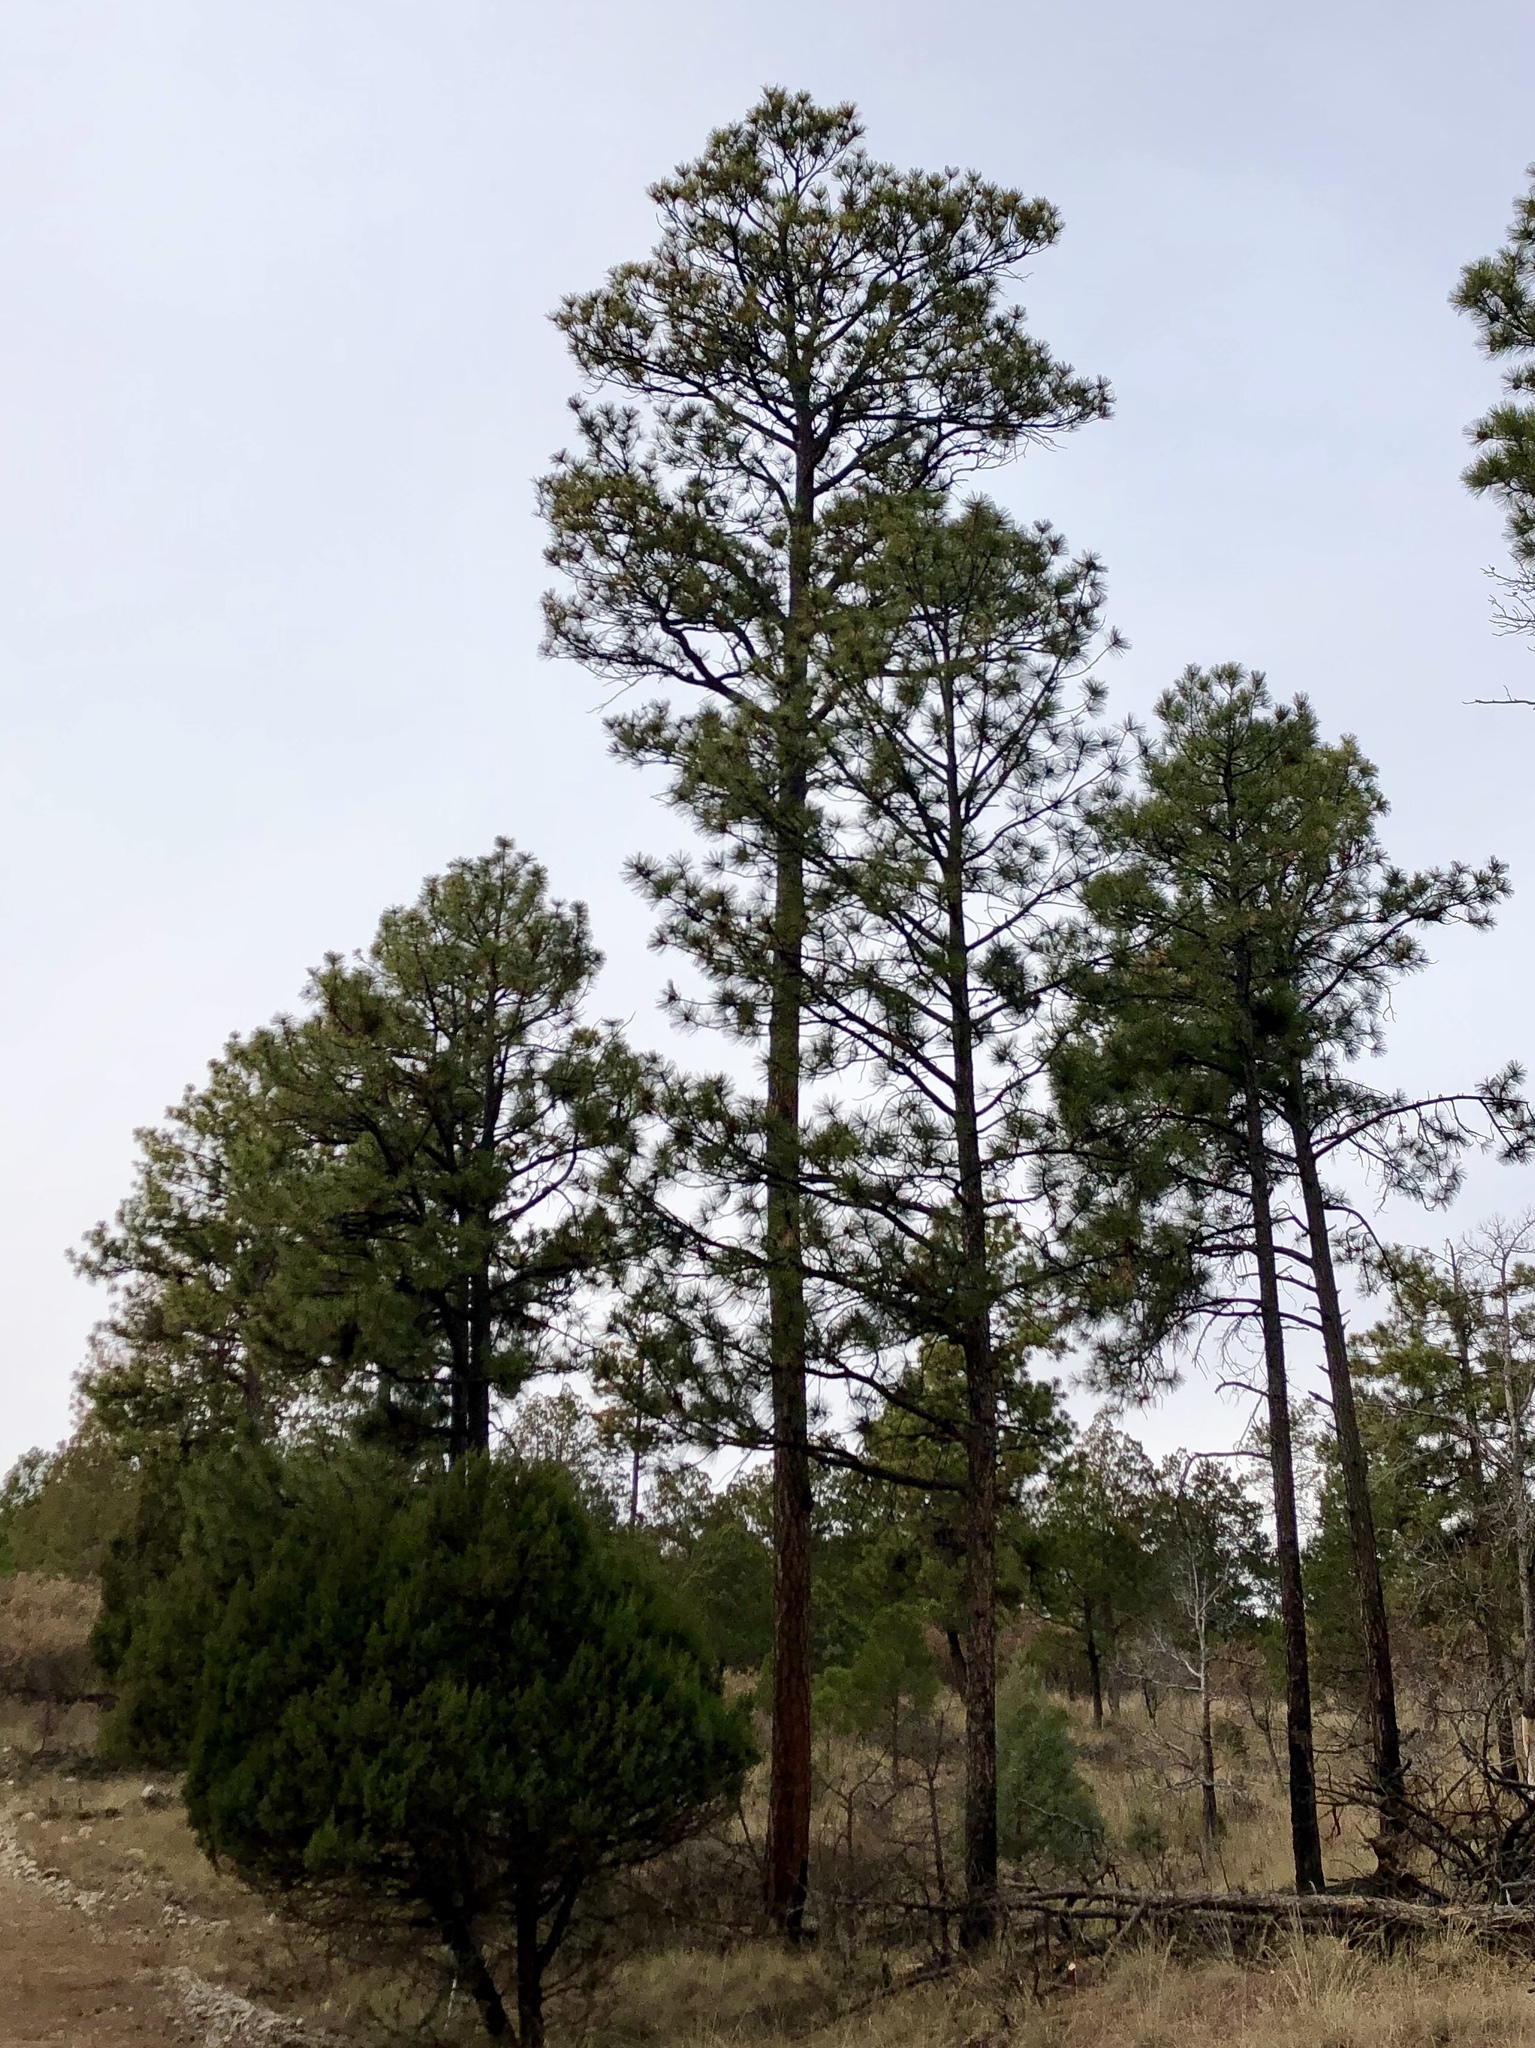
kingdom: Plantae
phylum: Tracheophyta
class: Pinopsida
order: Pinales
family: Pinaceae
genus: Pinus
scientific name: Pinus ponderosa
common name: Western yellow-pine
